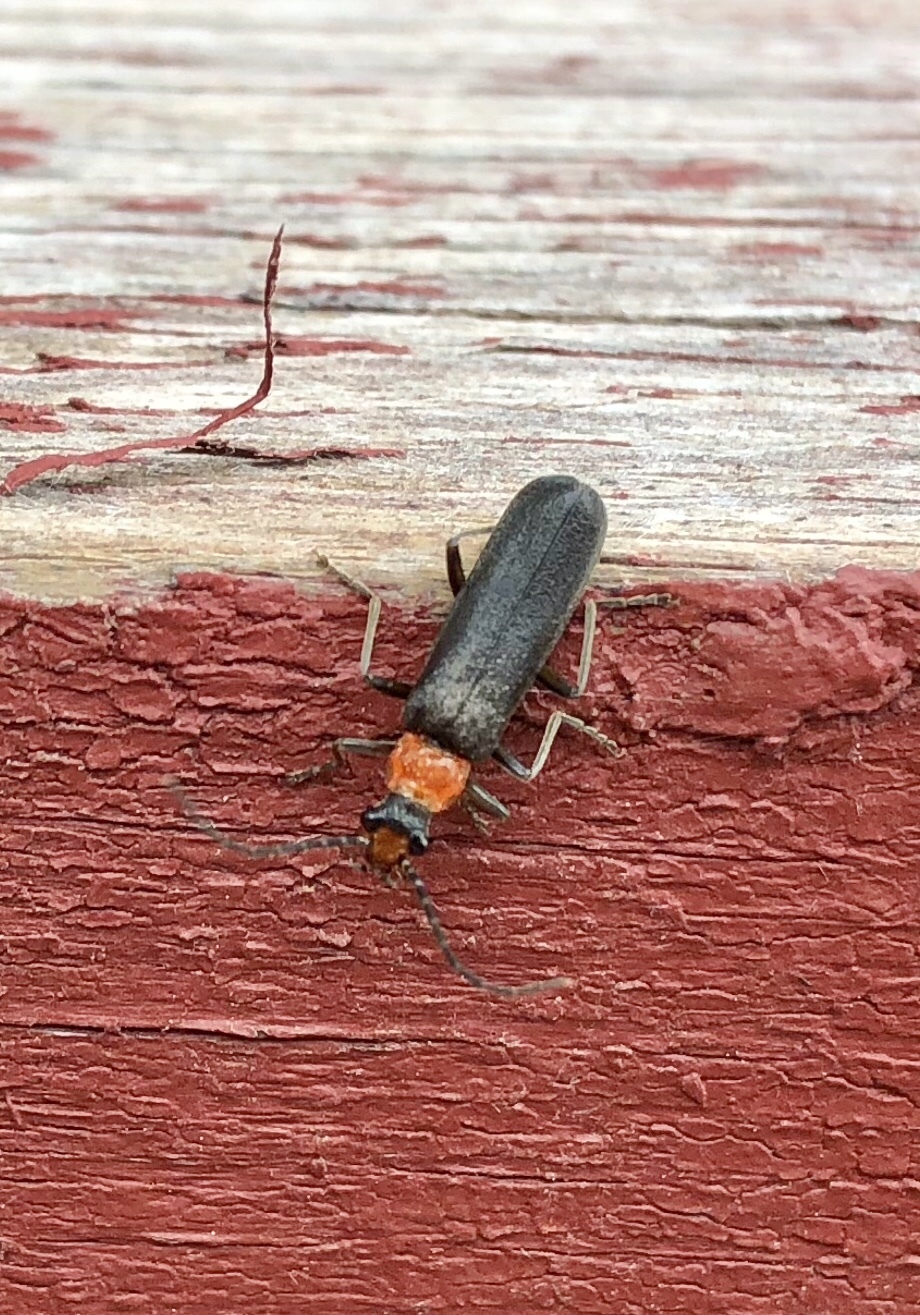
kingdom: Animalia
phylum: Arthropoda
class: Insecta
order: Coleoptera
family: Cantharidae
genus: Podabrus
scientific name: Podabrus pruinosus
